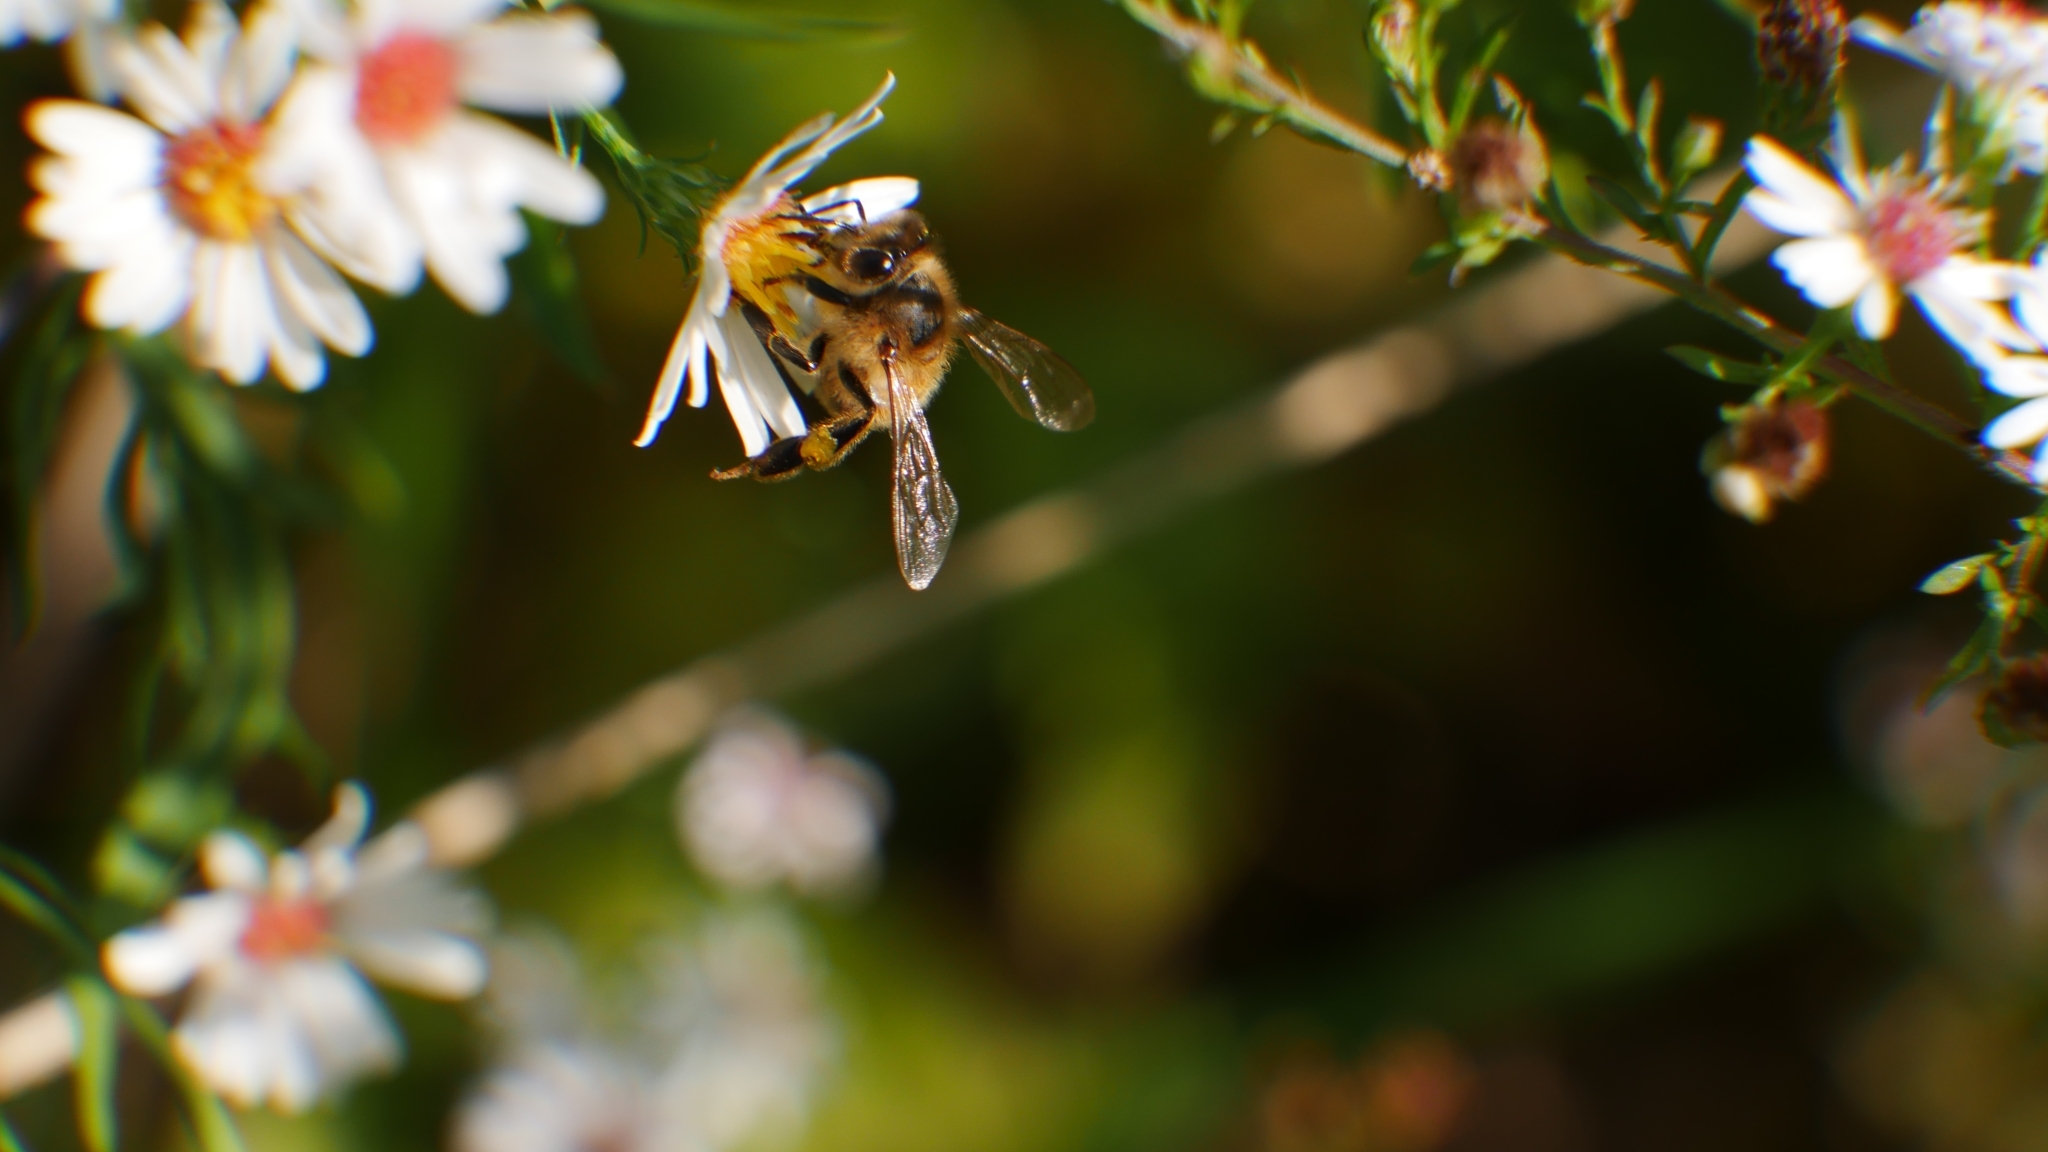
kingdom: Animalia
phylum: Arthropoda
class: Insecta
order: Hymenoptera
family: Apidae
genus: Apis
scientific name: Apis mellifera
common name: Honey bee
